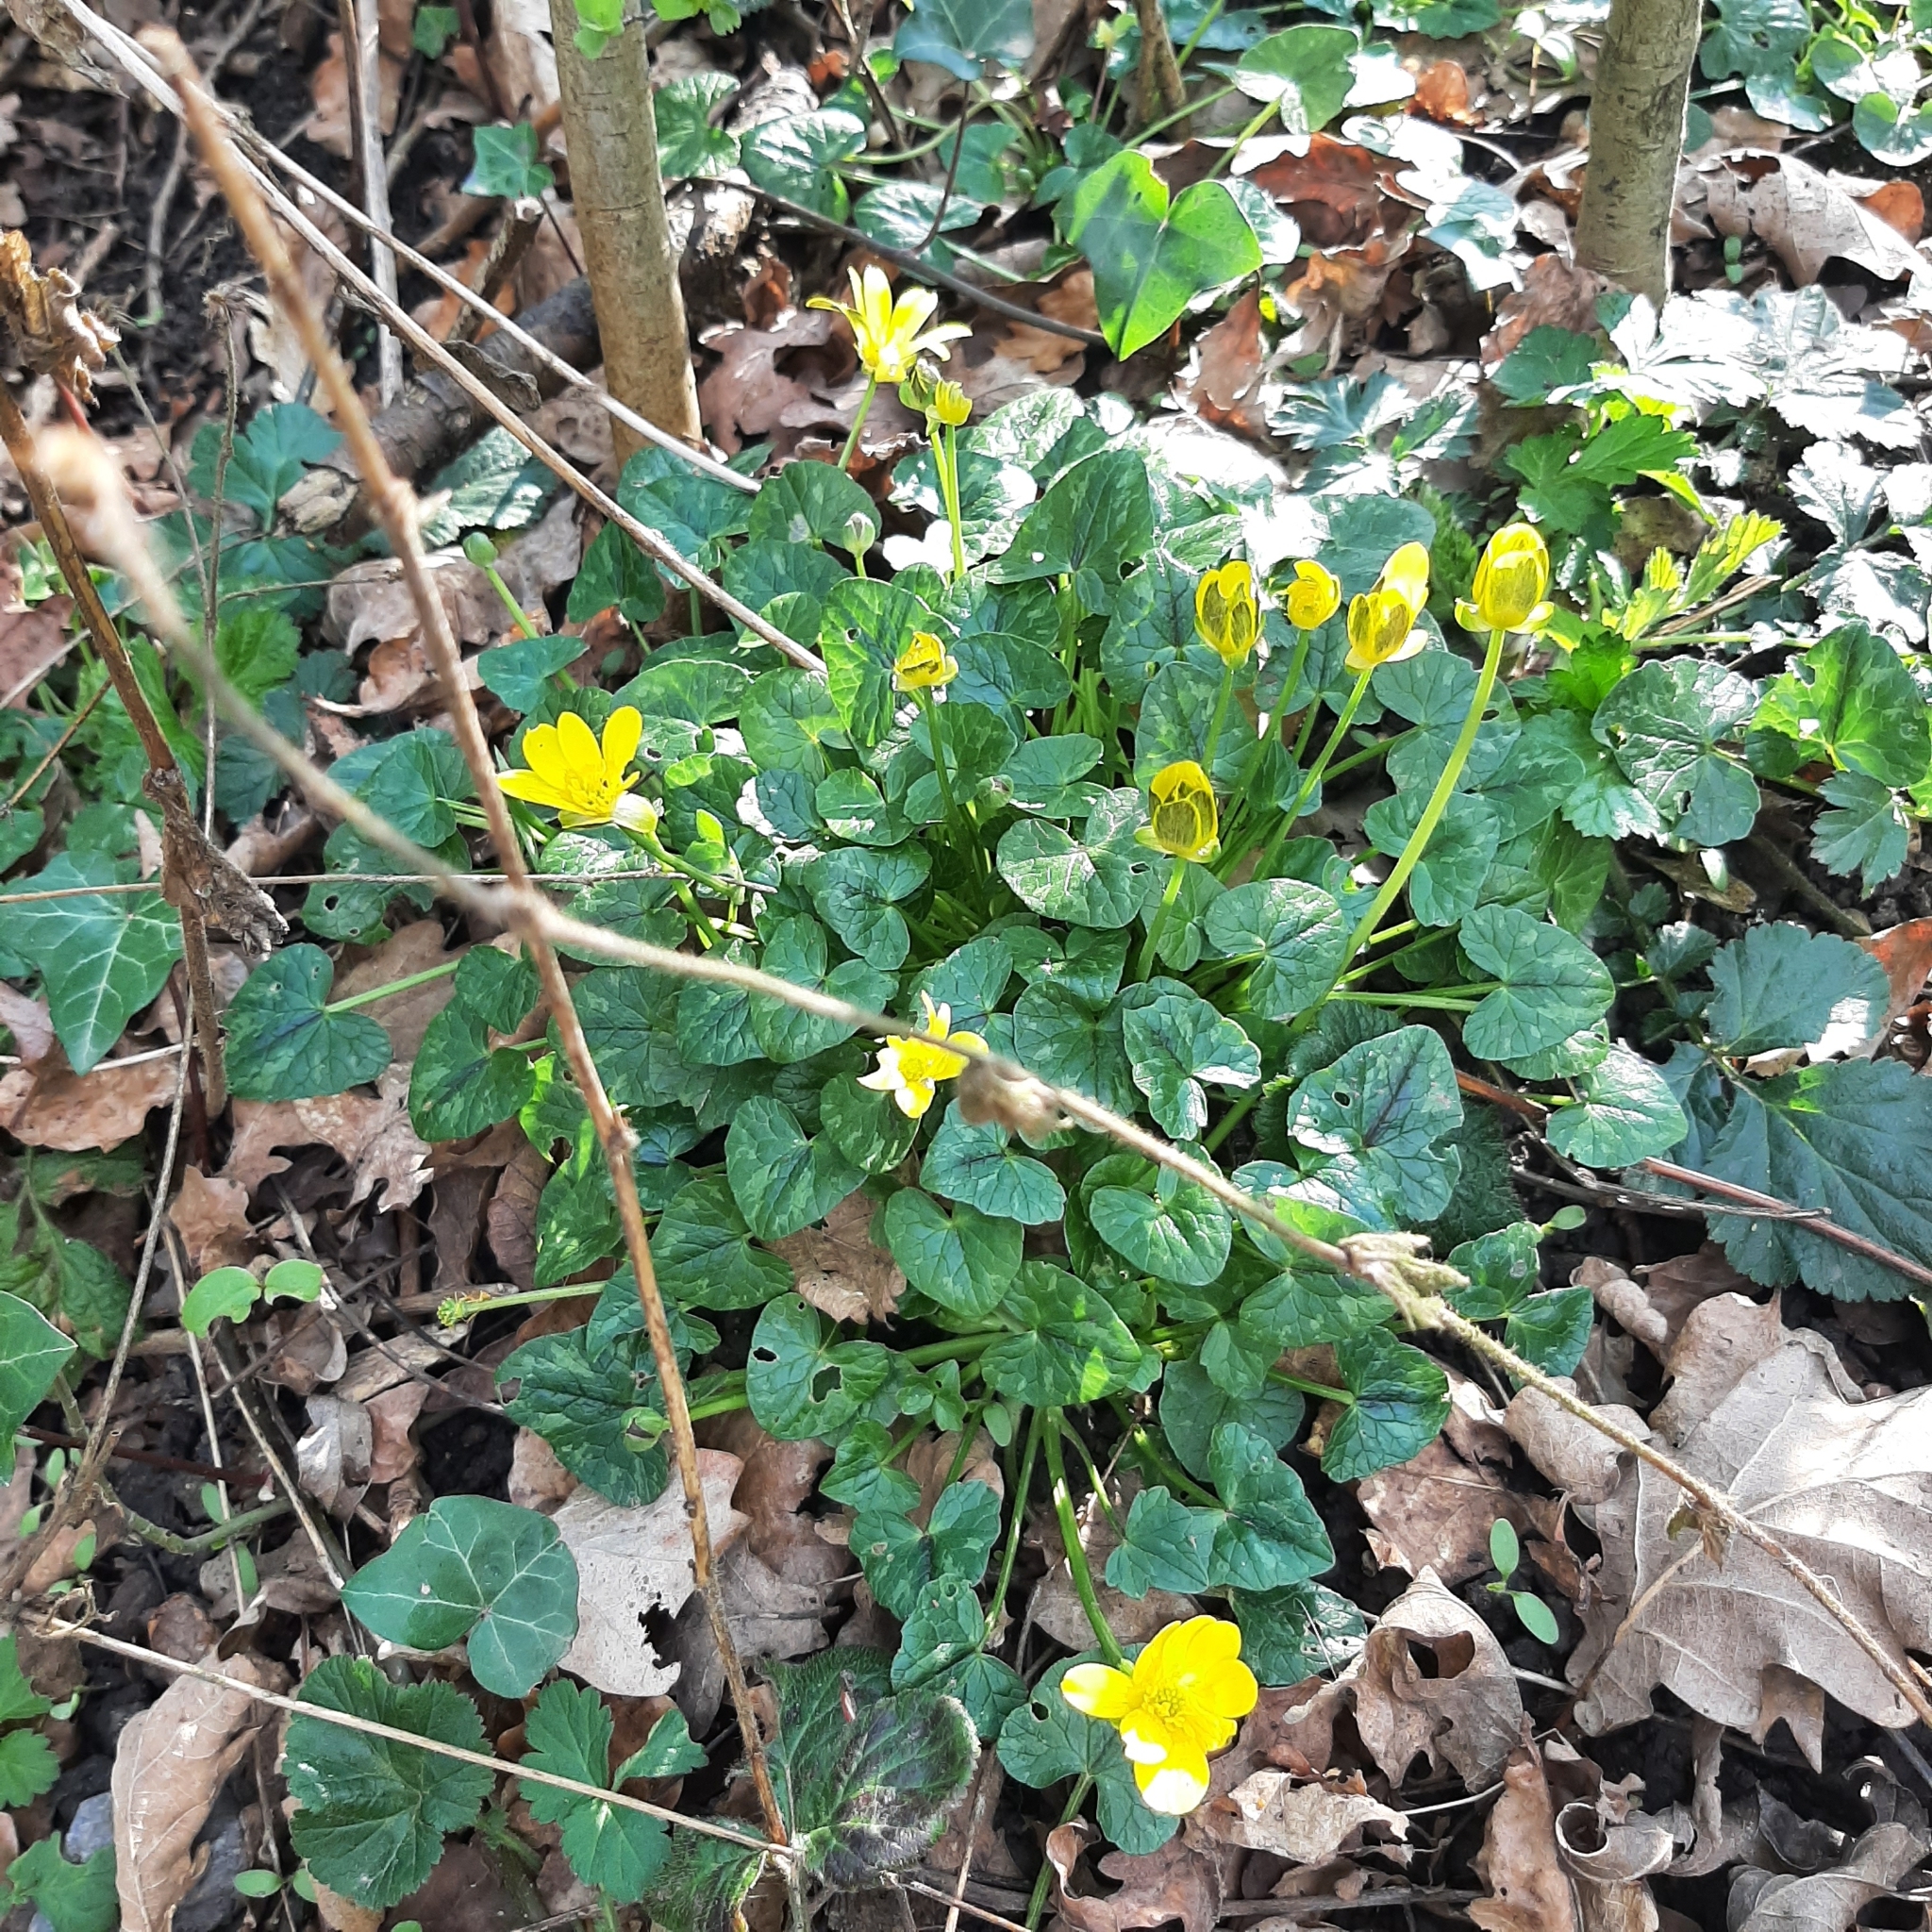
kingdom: Plantae
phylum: Tracheophyta
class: Magnoliopsida
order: Ranunculales
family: Ranunculaceae
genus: Ficaria
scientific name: Ficaria verna
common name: Lesser celandine
